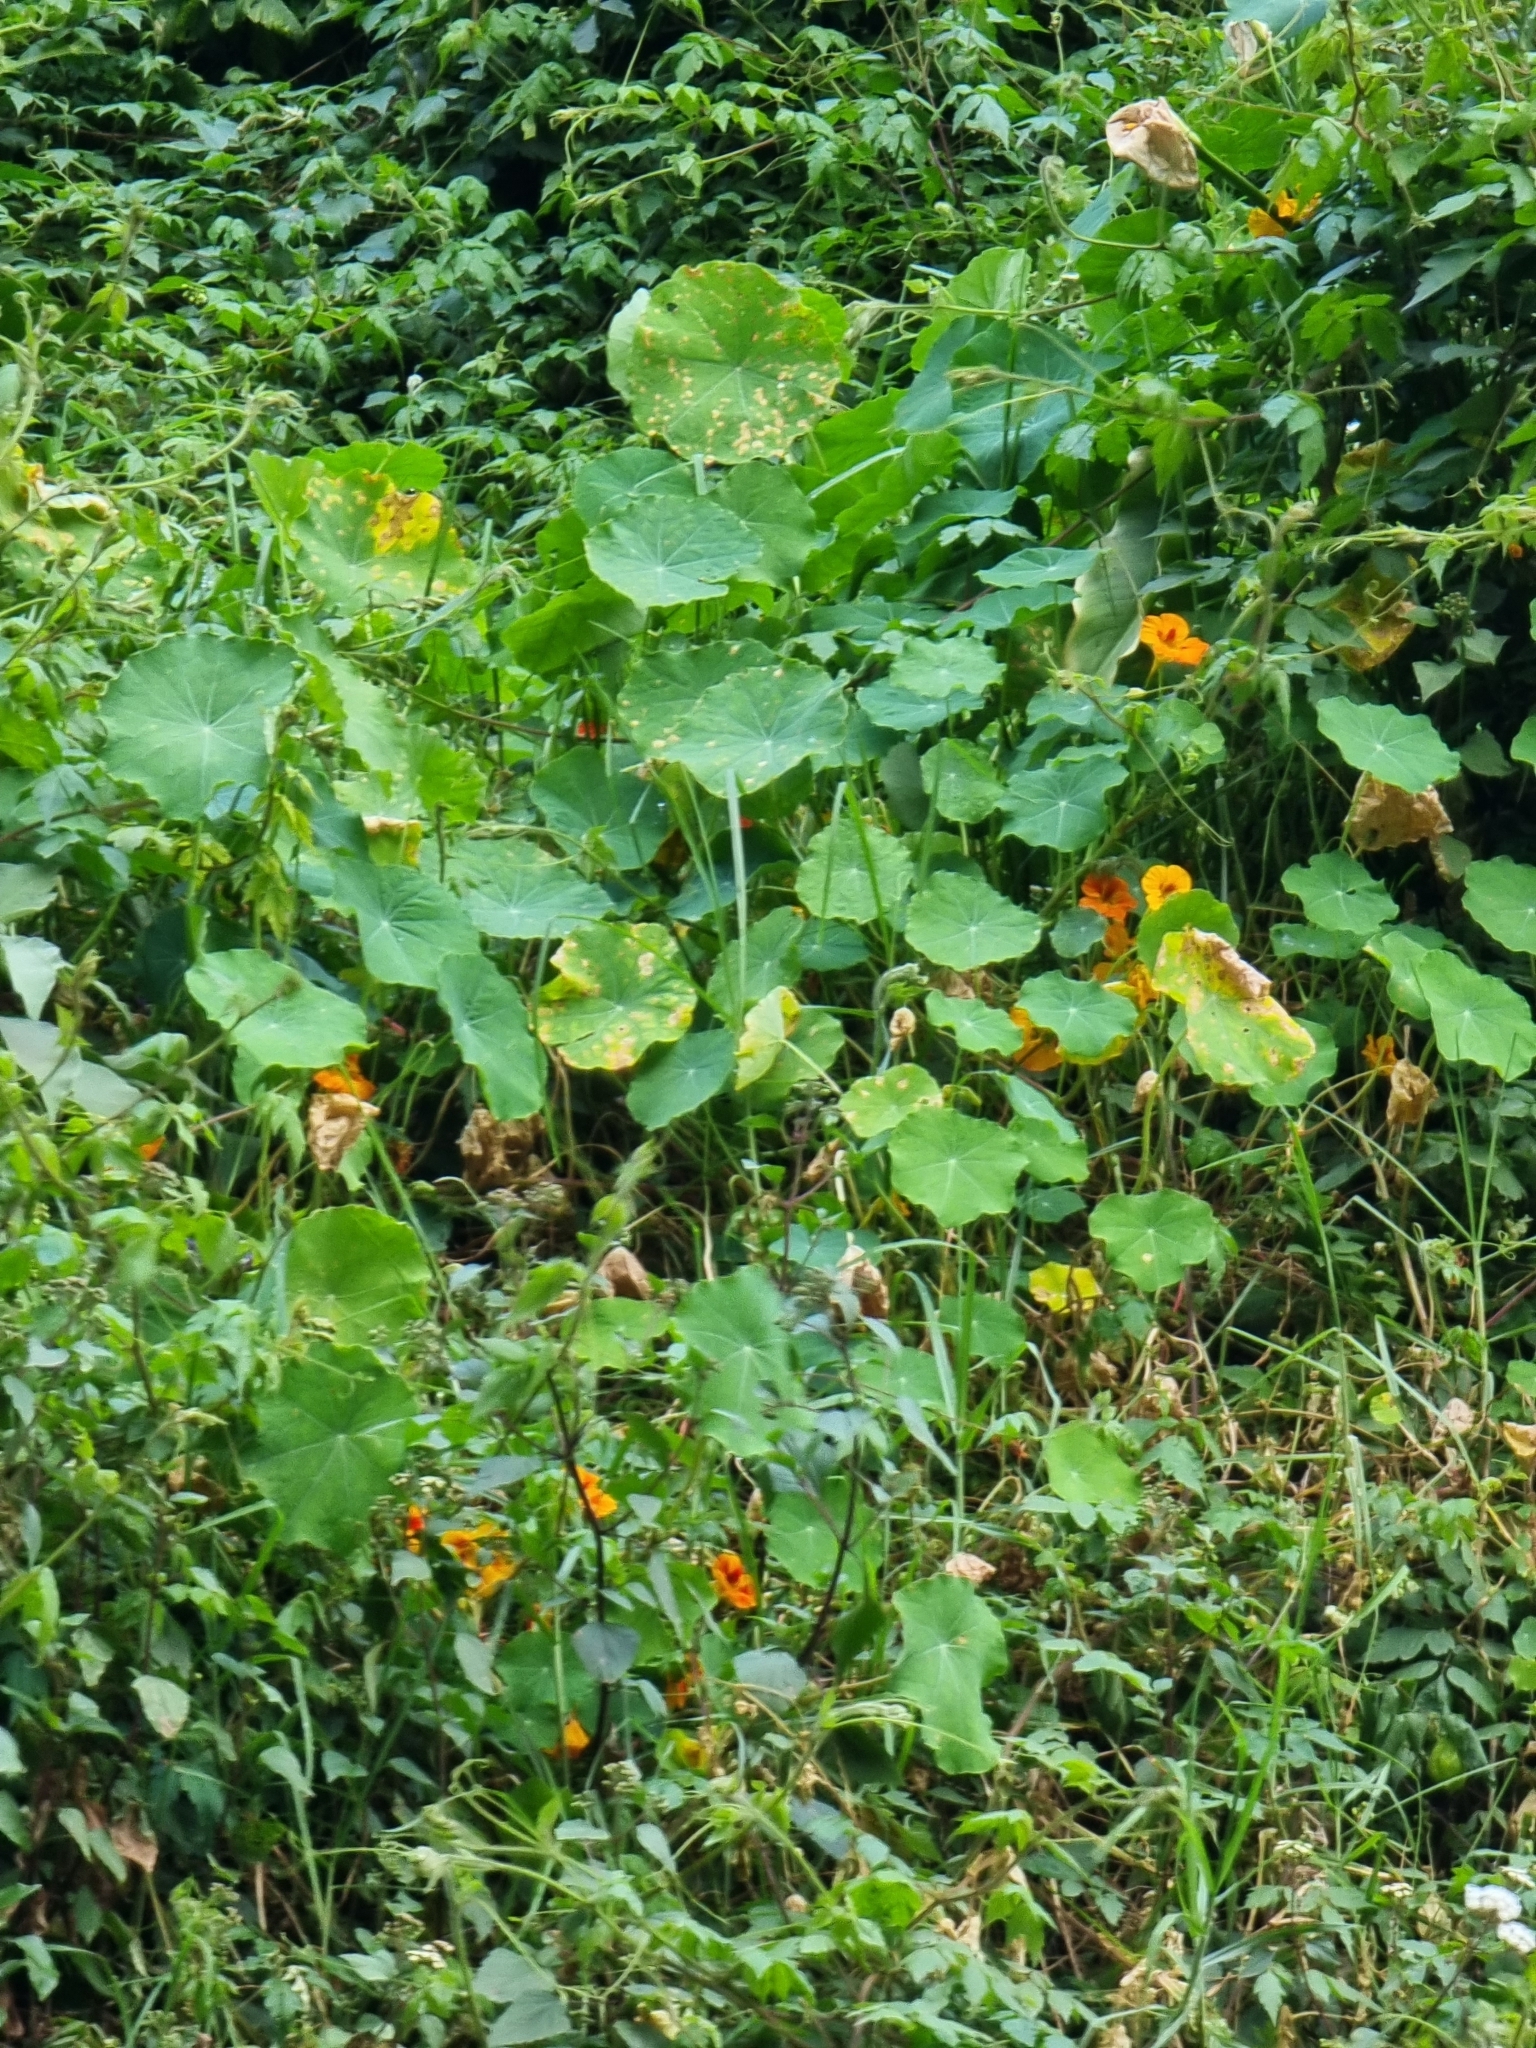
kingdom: Plantae
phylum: Tracheophyta
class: Magnoliopsida
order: Brassicales
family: Tropaeolaceae
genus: Tropaeolum
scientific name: Tropaeolum majus
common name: Nasturtium
